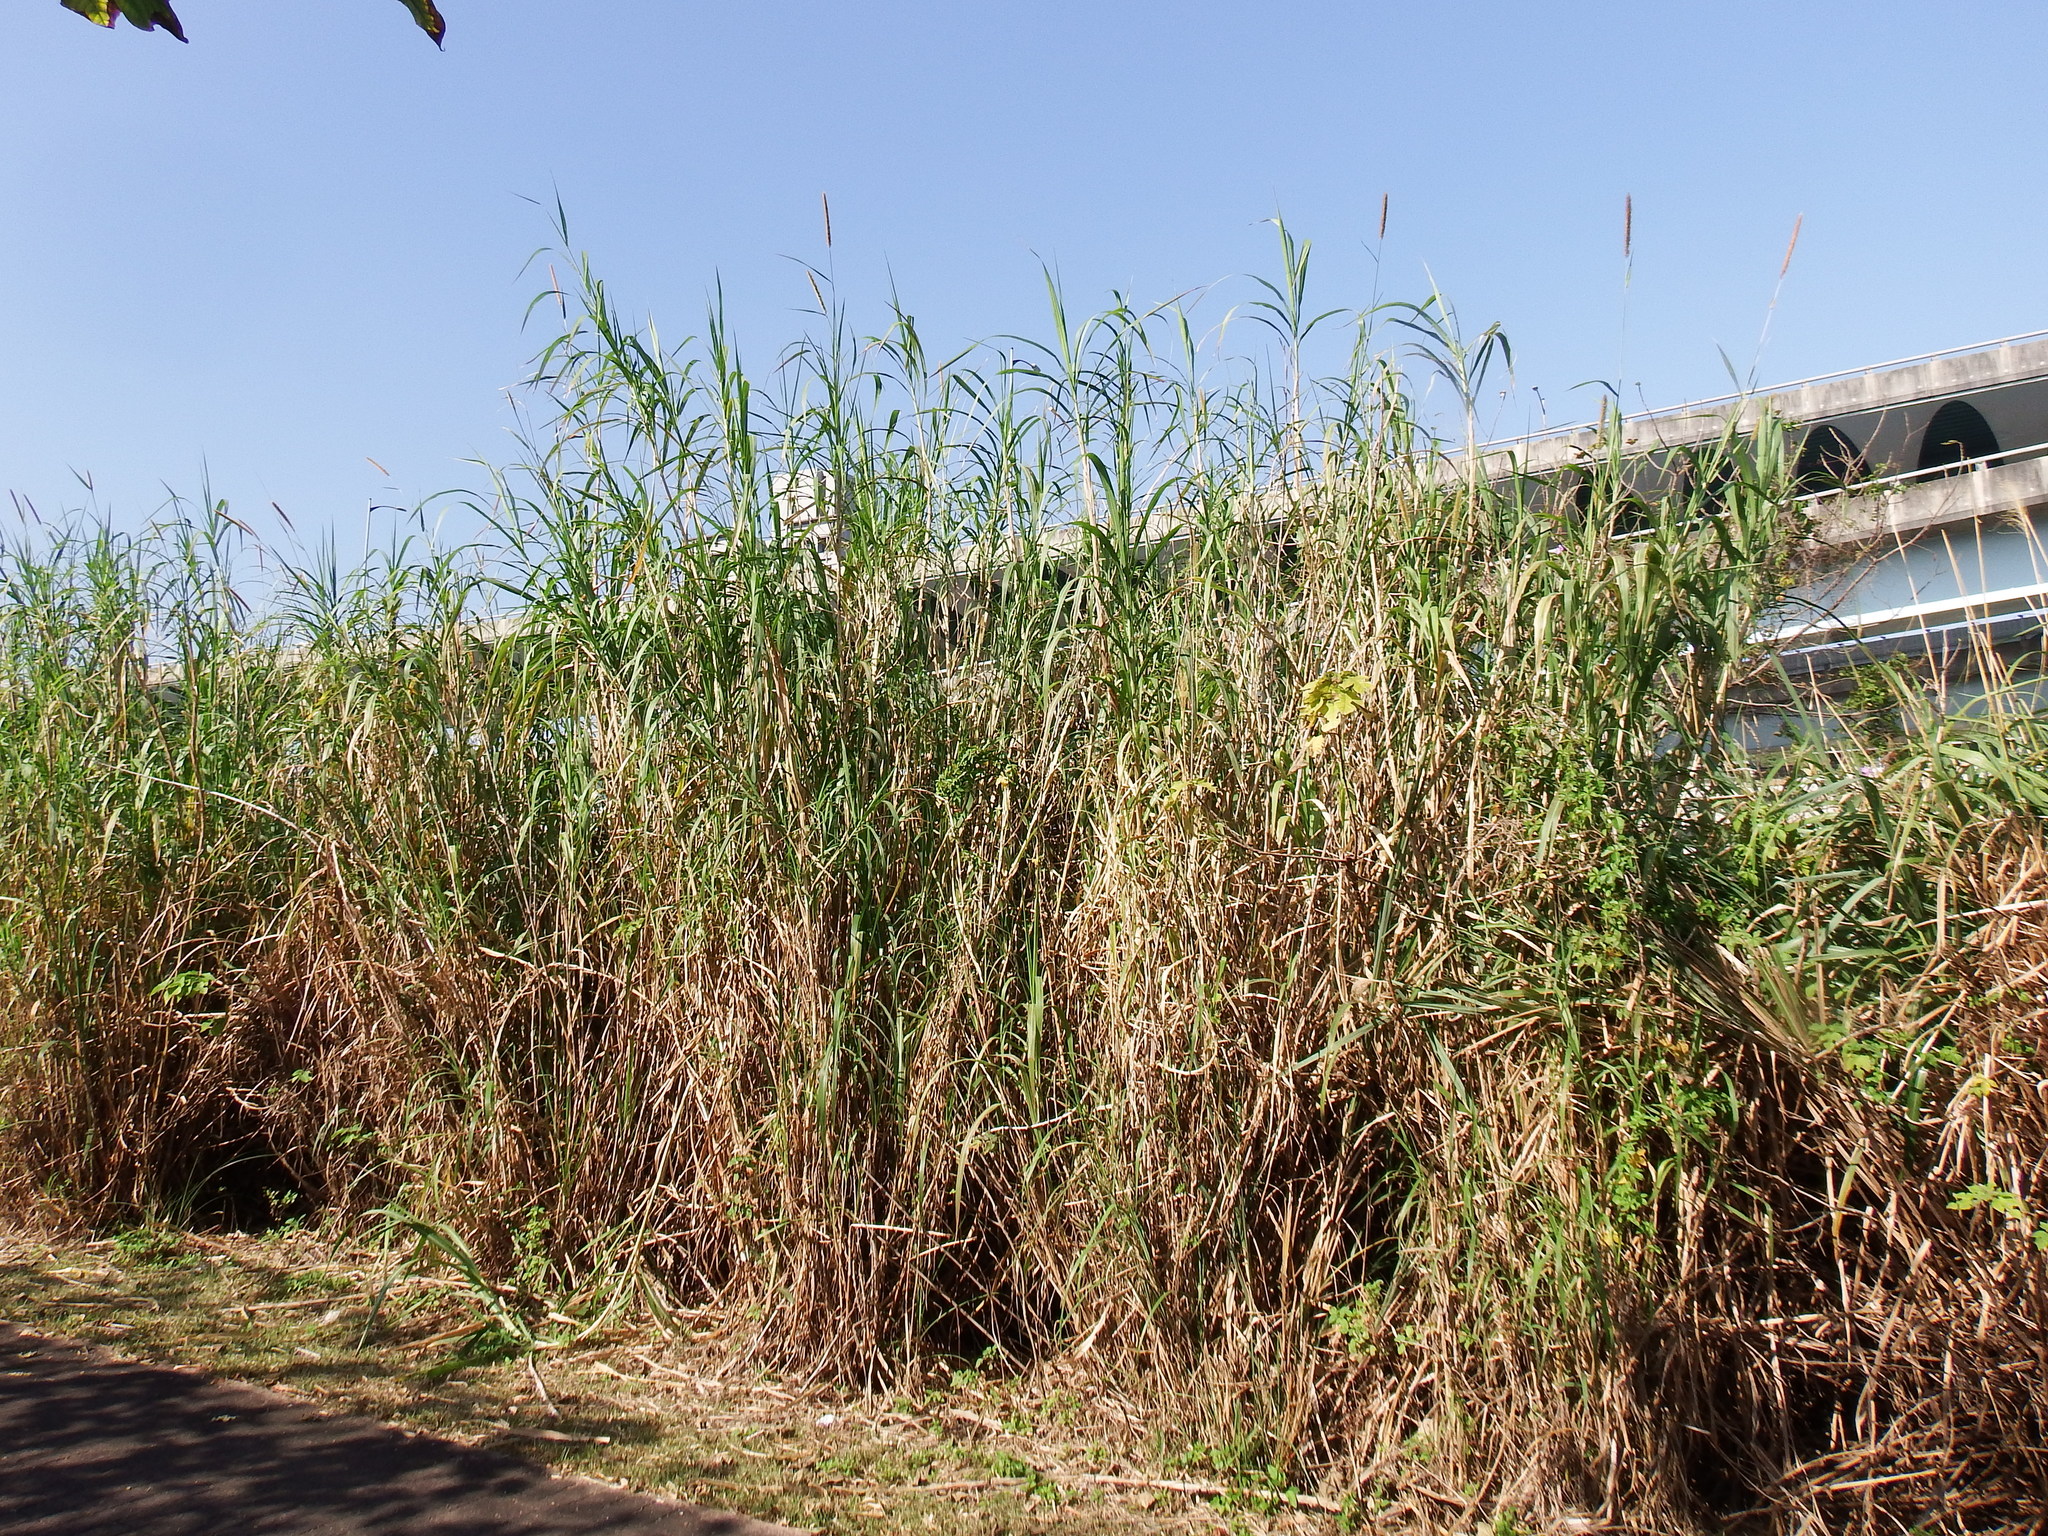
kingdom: Plantae
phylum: Tracheophyta
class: Liliopsida
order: Poales
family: Poaceae
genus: Cenchrus
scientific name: Cenchrus purpureus
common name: Elephant grass
